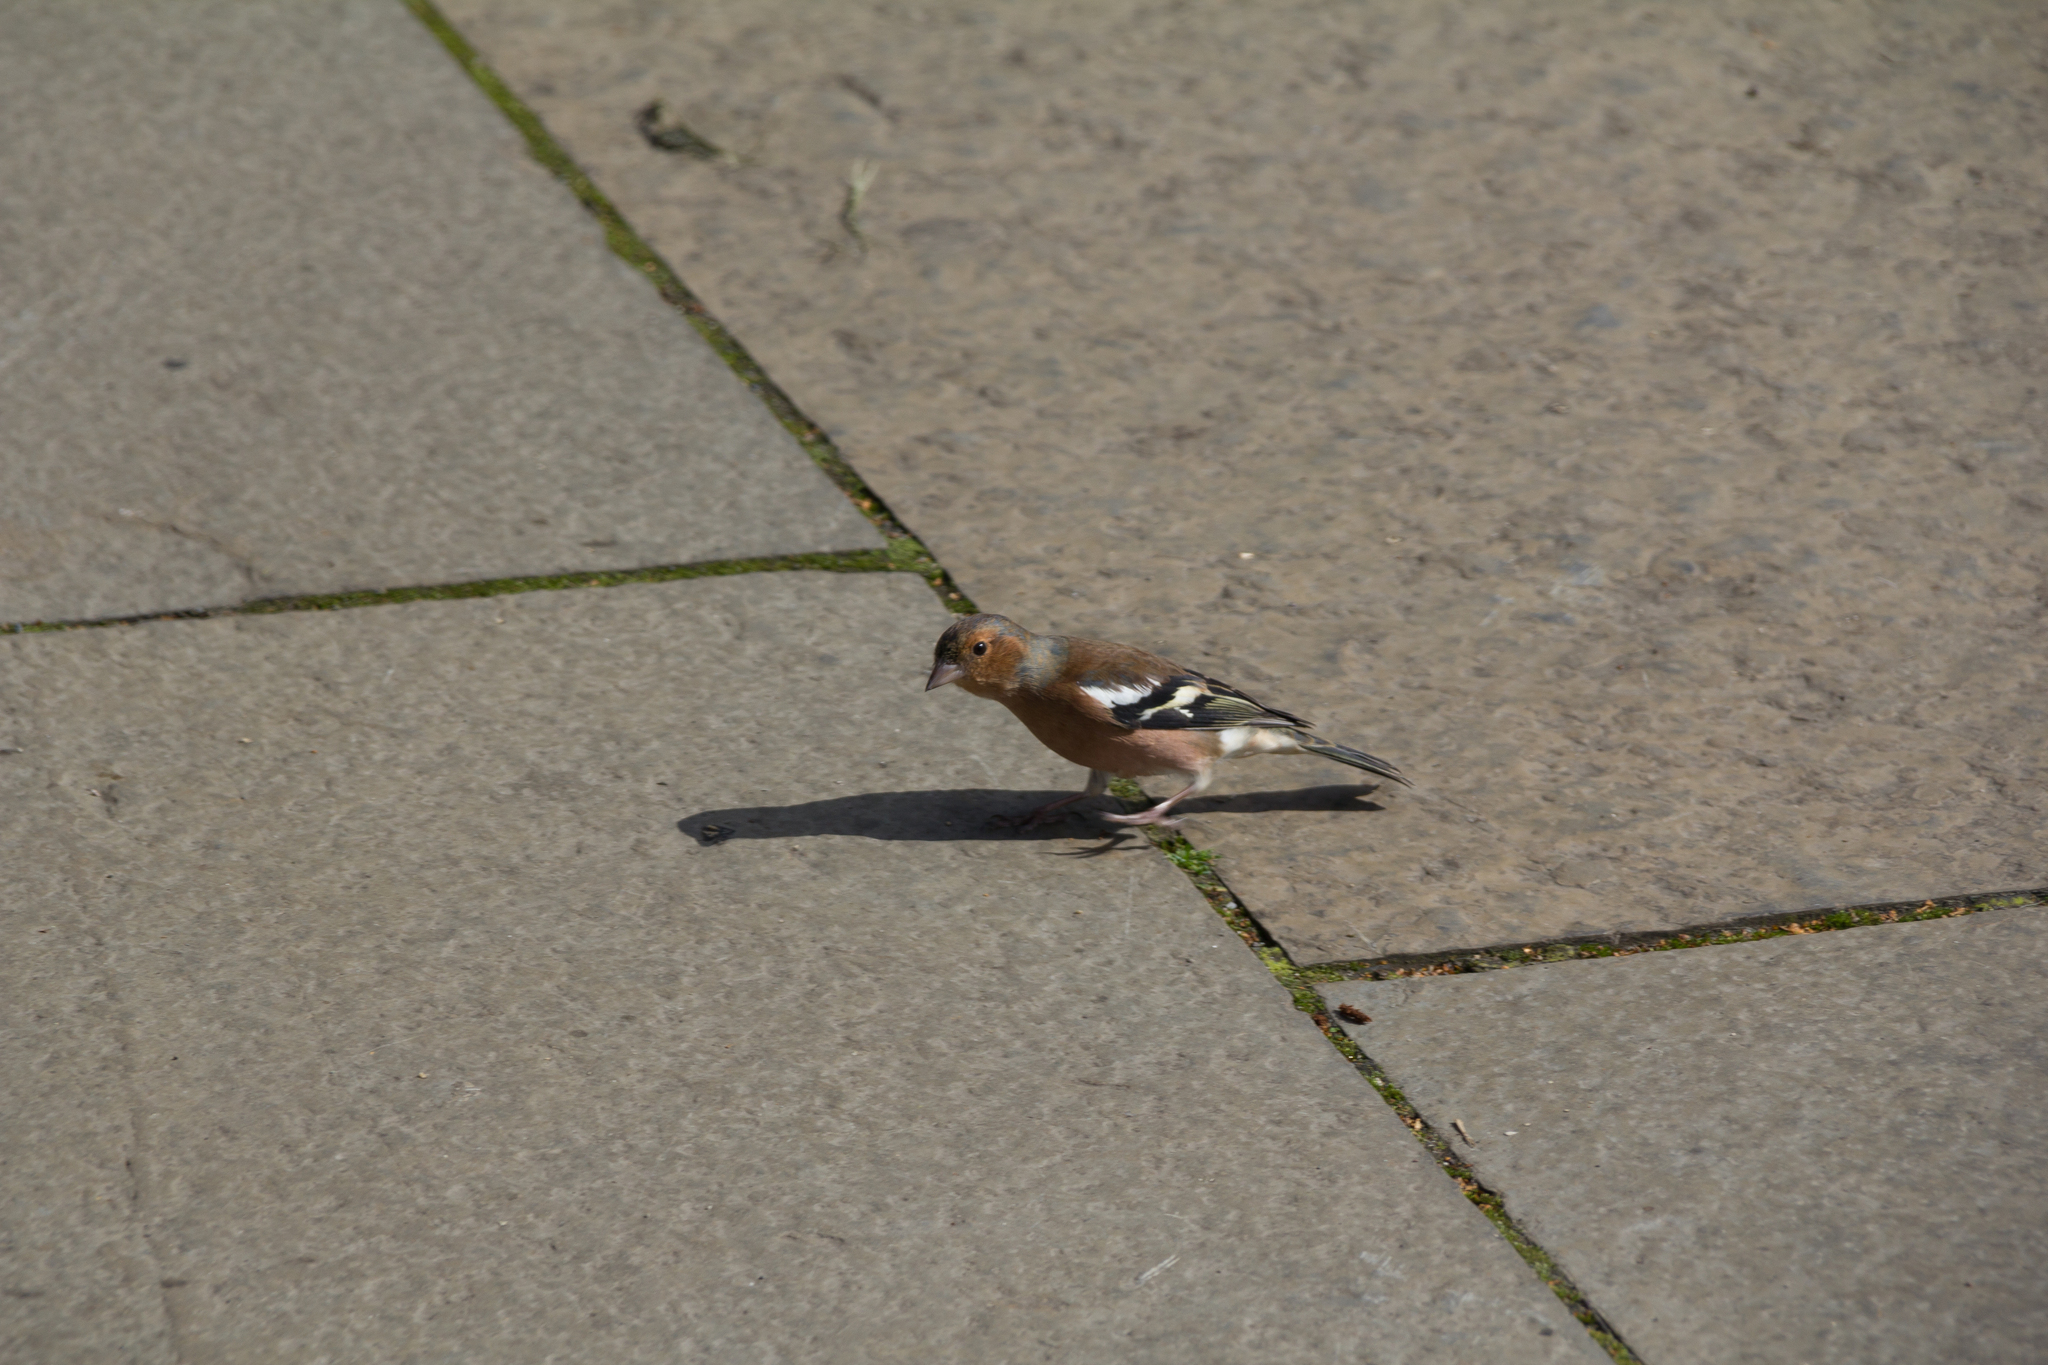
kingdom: Animalia
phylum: Chordata
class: Aves
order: Passeriformes
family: Fringillidae
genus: Fringilla
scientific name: Fringilla coelebs
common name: Common chaffinch
